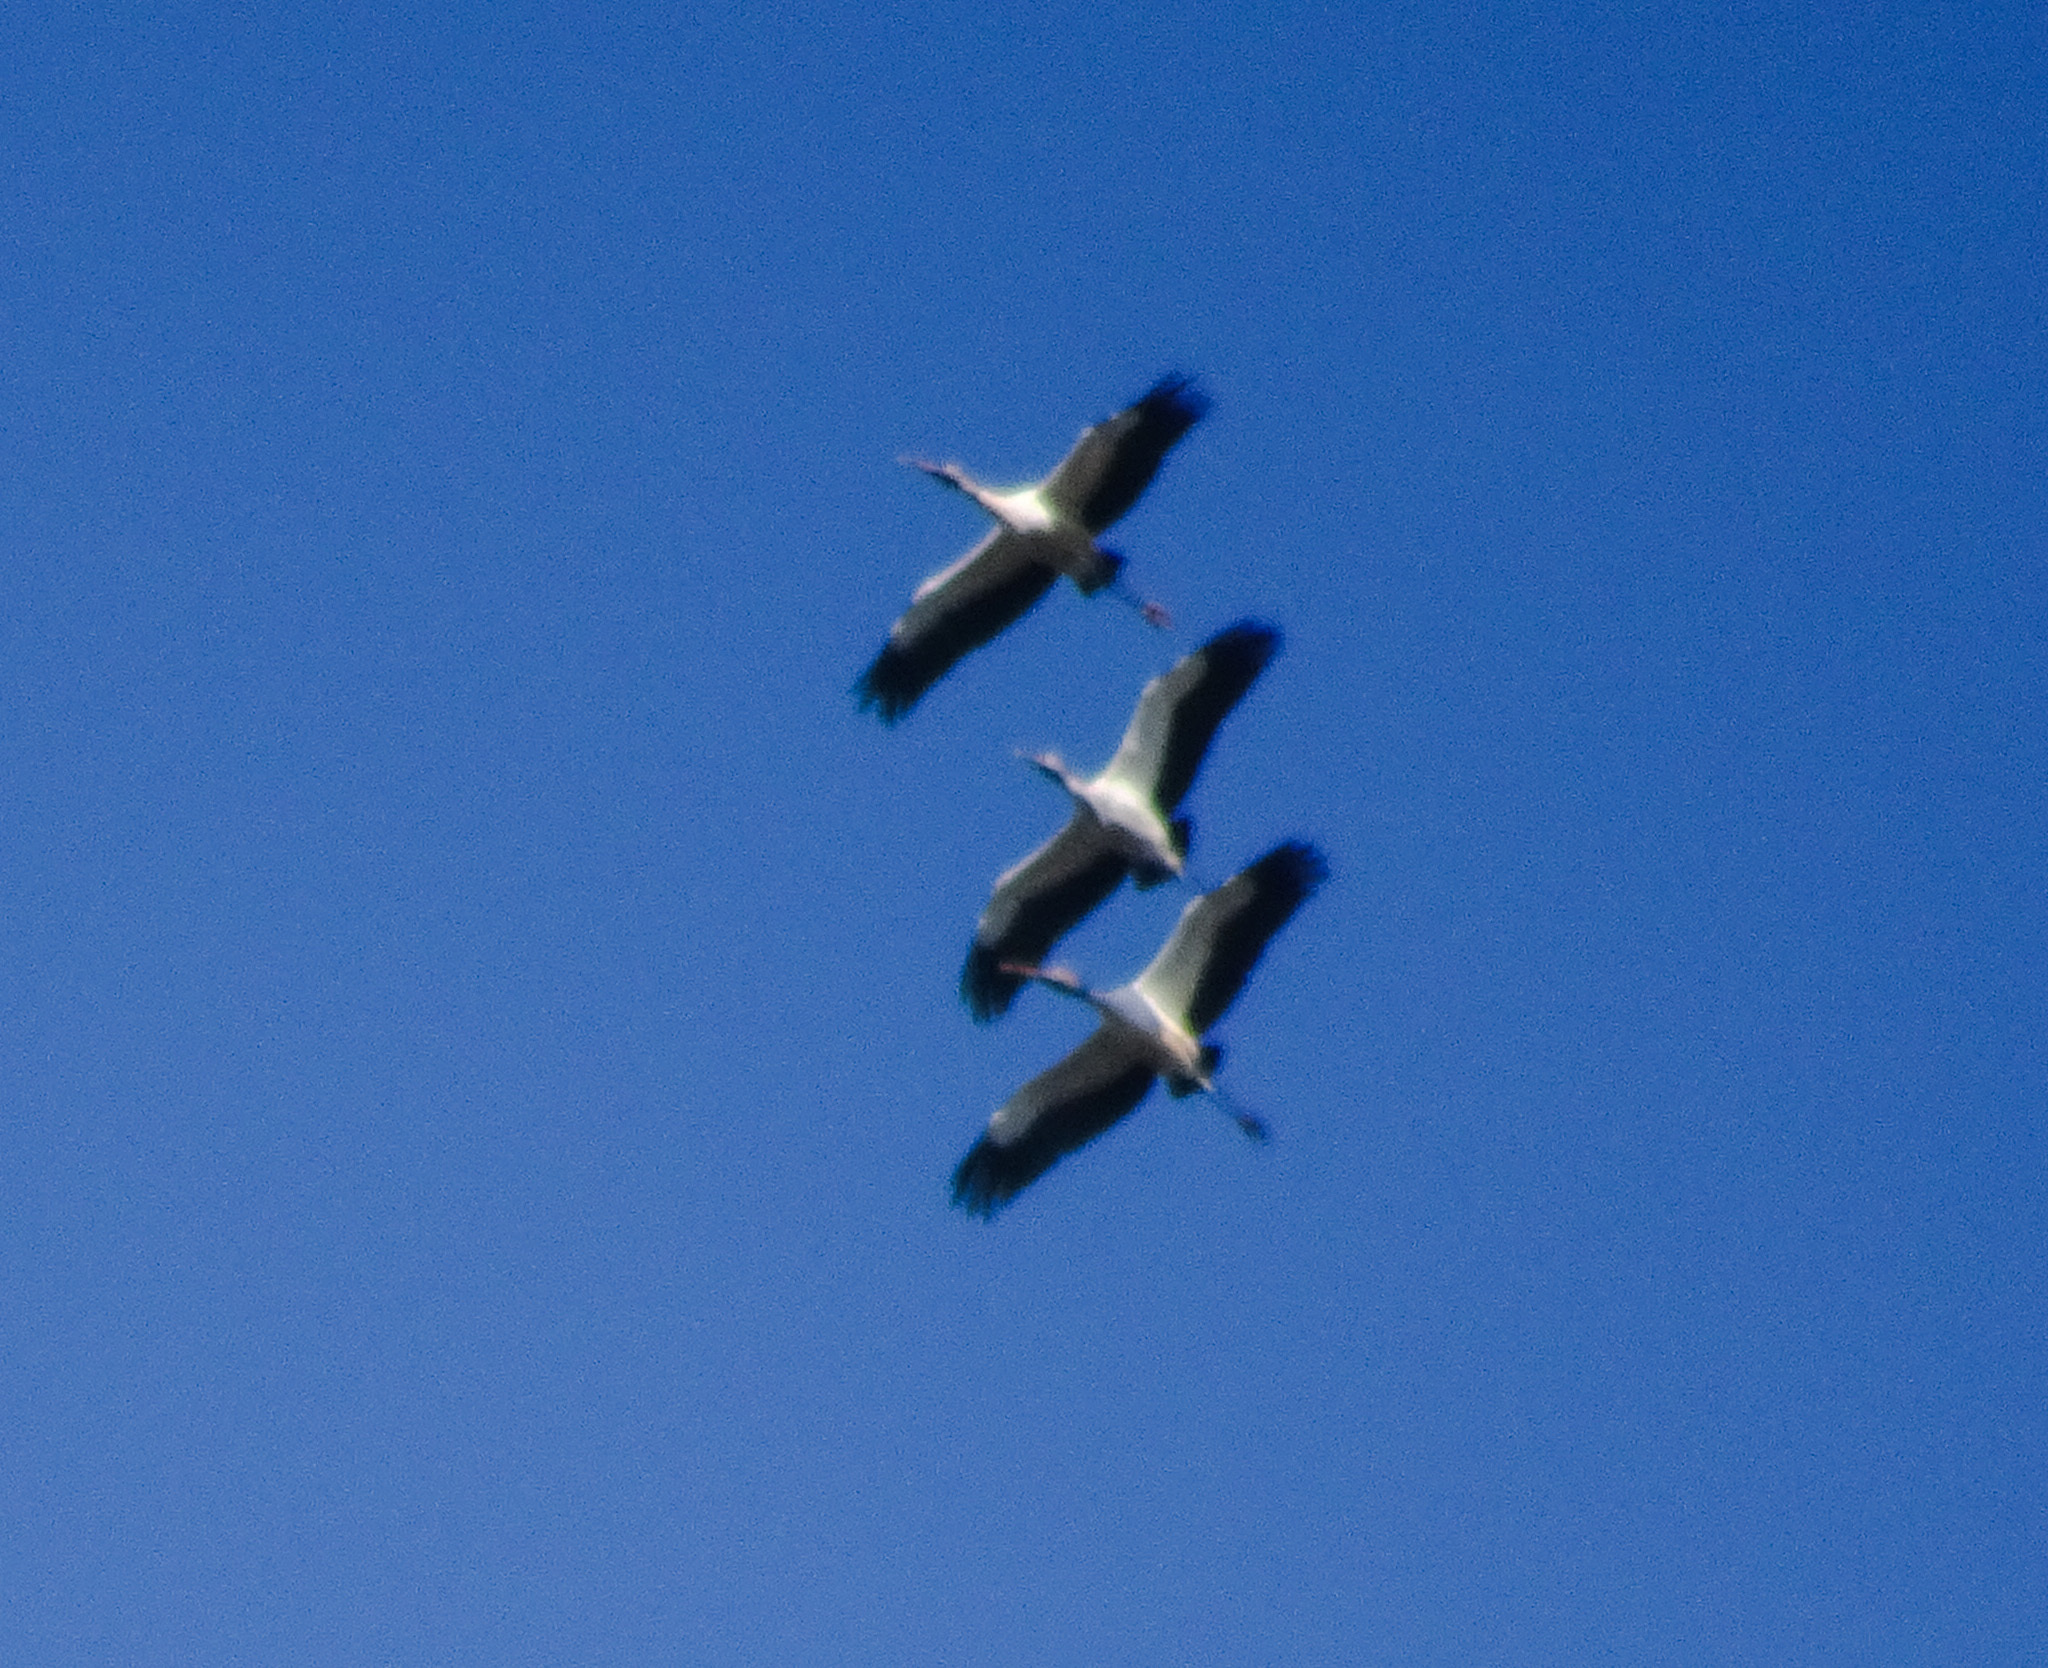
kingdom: Animalia
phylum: Chordata
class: Aves
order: Ciconiiformes
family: Ciconiidae
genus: Mycteria
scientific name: Mycteria americana
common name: Wood stork
